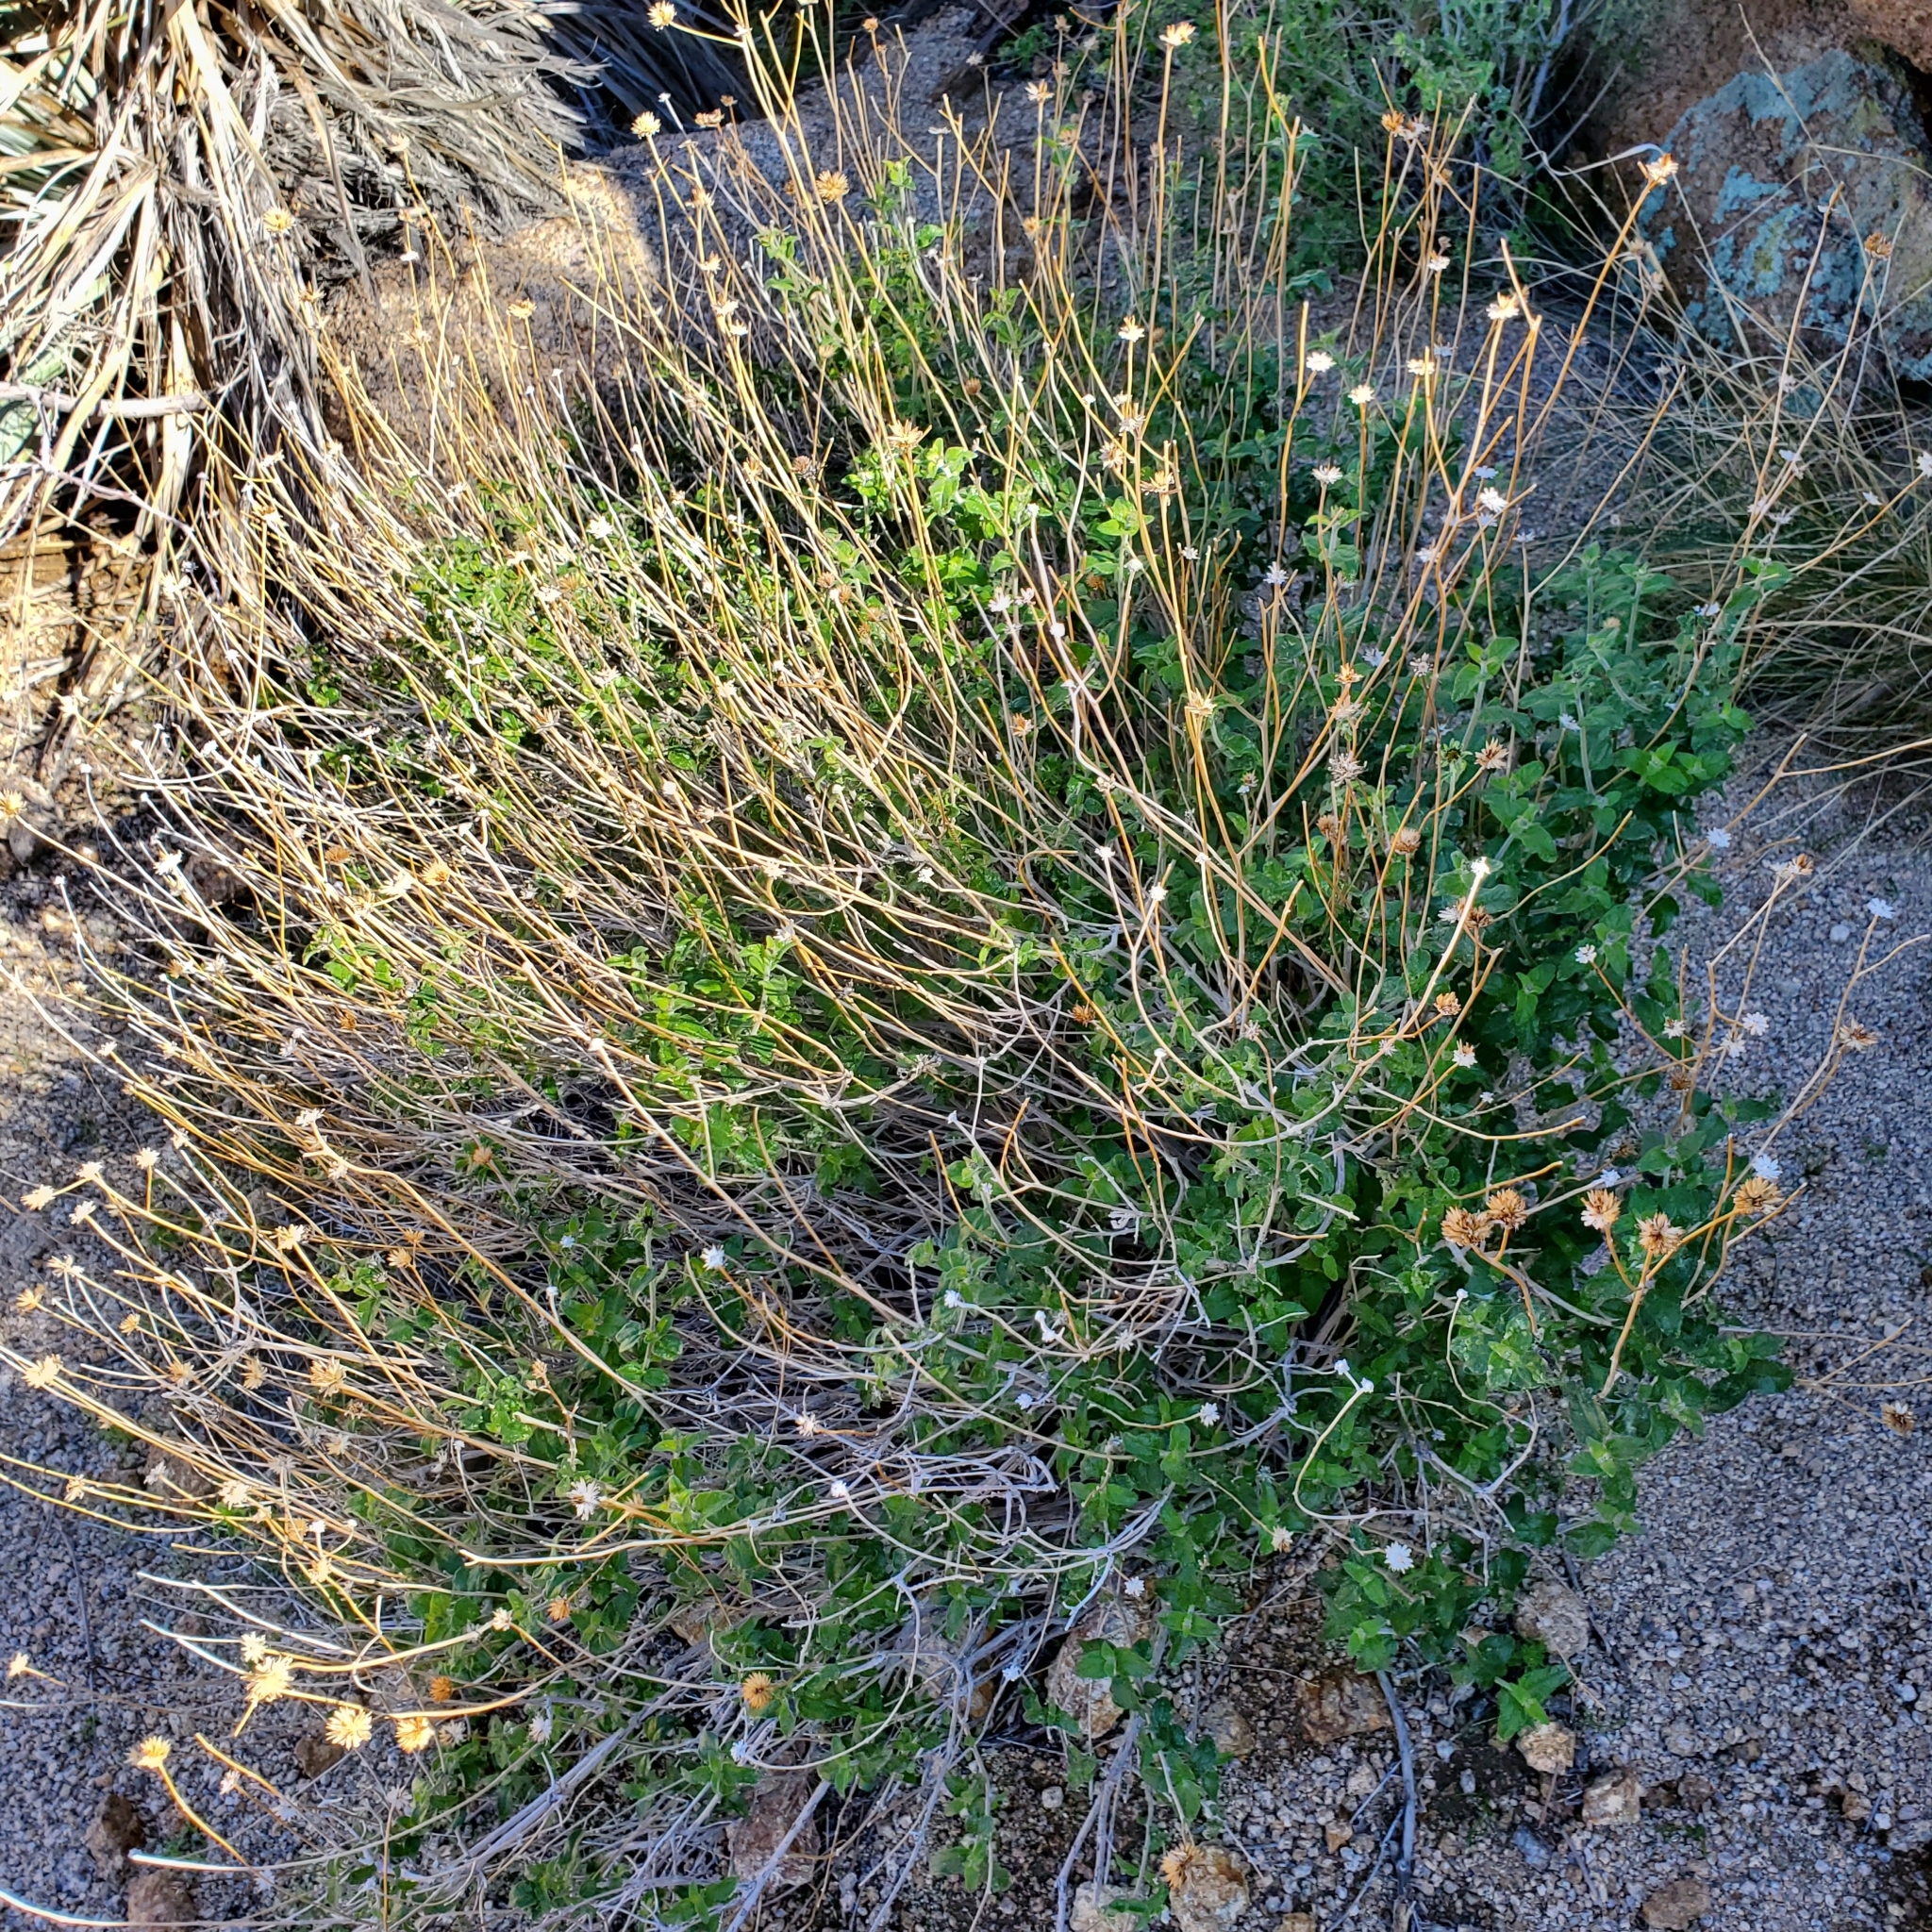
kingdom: Plantae
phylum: Tracheophyta
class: Magnoliopsida
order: Asterales
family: Asteraceae
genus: Bahiopsis
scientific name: Bahiopsis parishii
